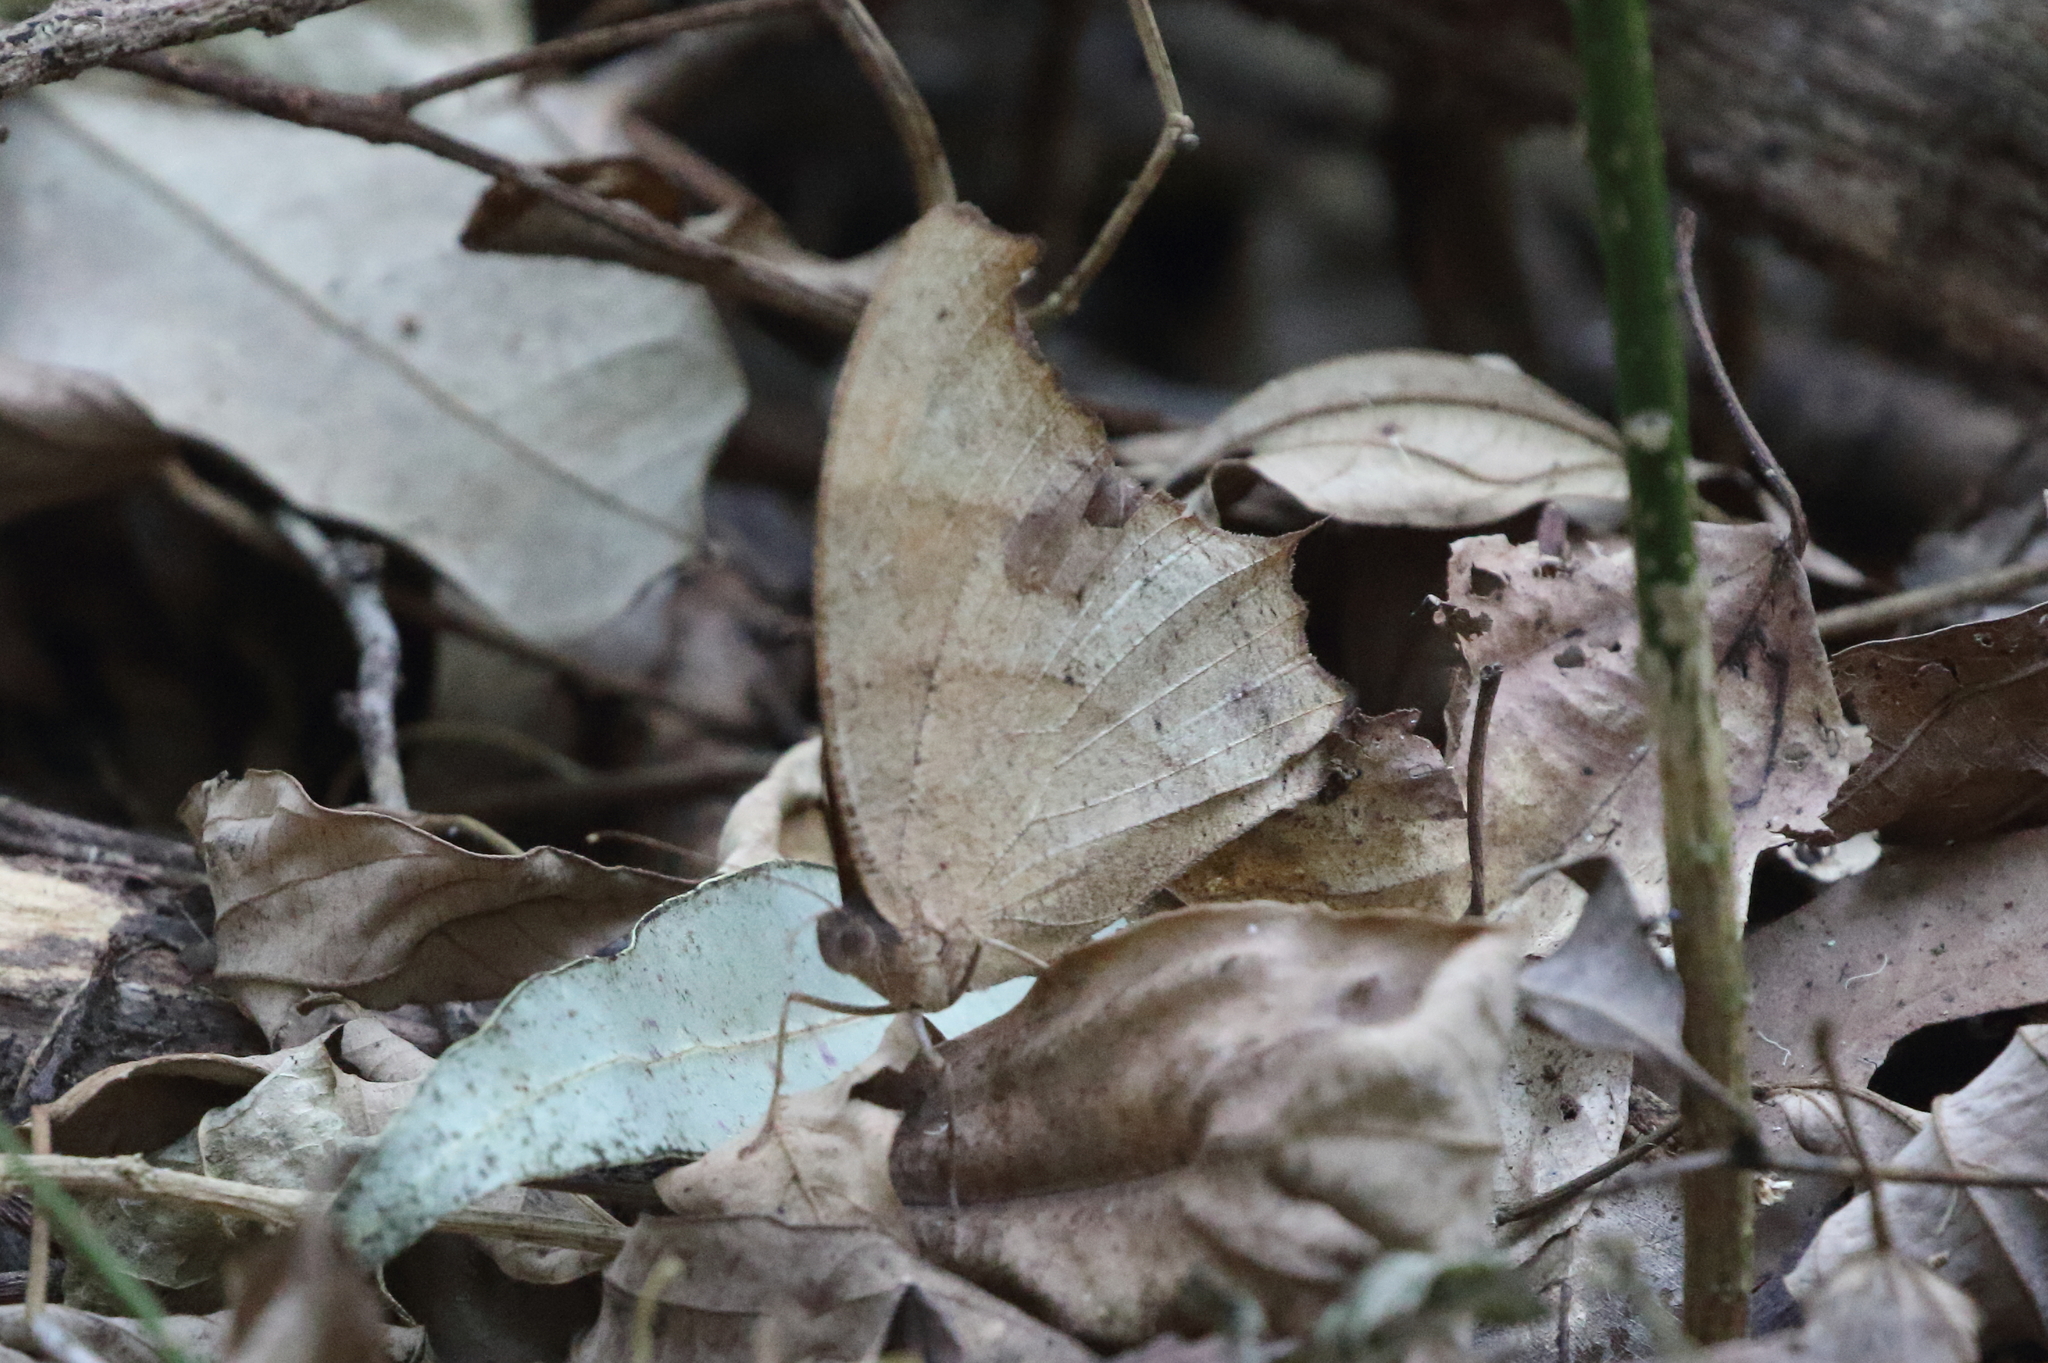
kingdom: Animalia
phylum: Arthropoda
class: Insecta
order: Lepidoptera
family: Nymphalidae
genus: Melanitis
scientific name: Melanitis leda
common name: Twilight brown
